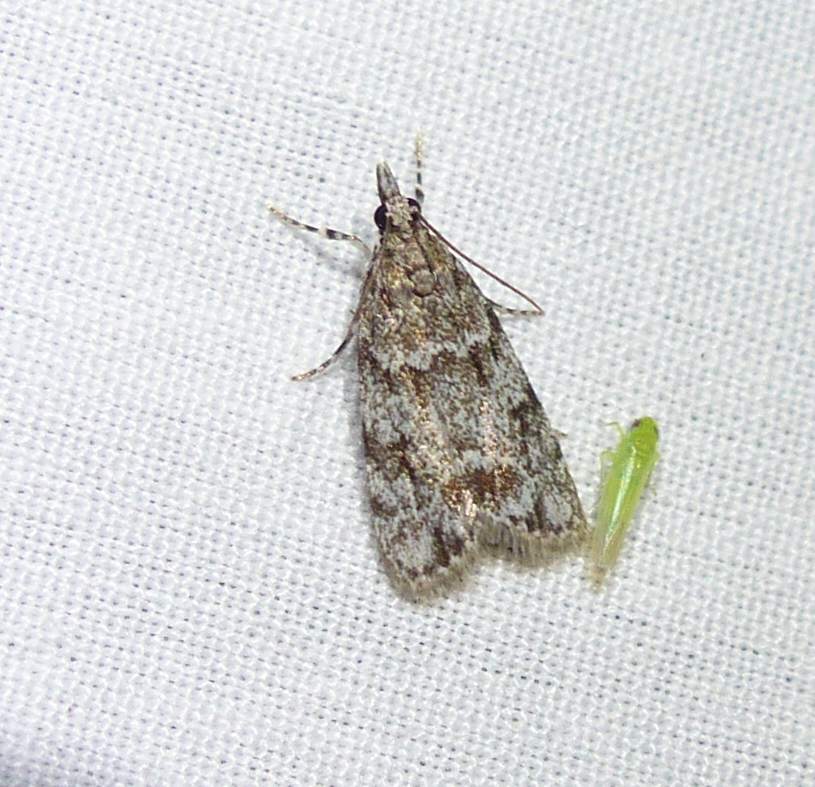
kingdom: Animalia
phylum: Arthropoda
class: Insecta
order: Lepidoptera
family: Crambidae
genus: Scoparia
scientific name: Scoparia biplagialis
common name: Double-striped scoparia moth
